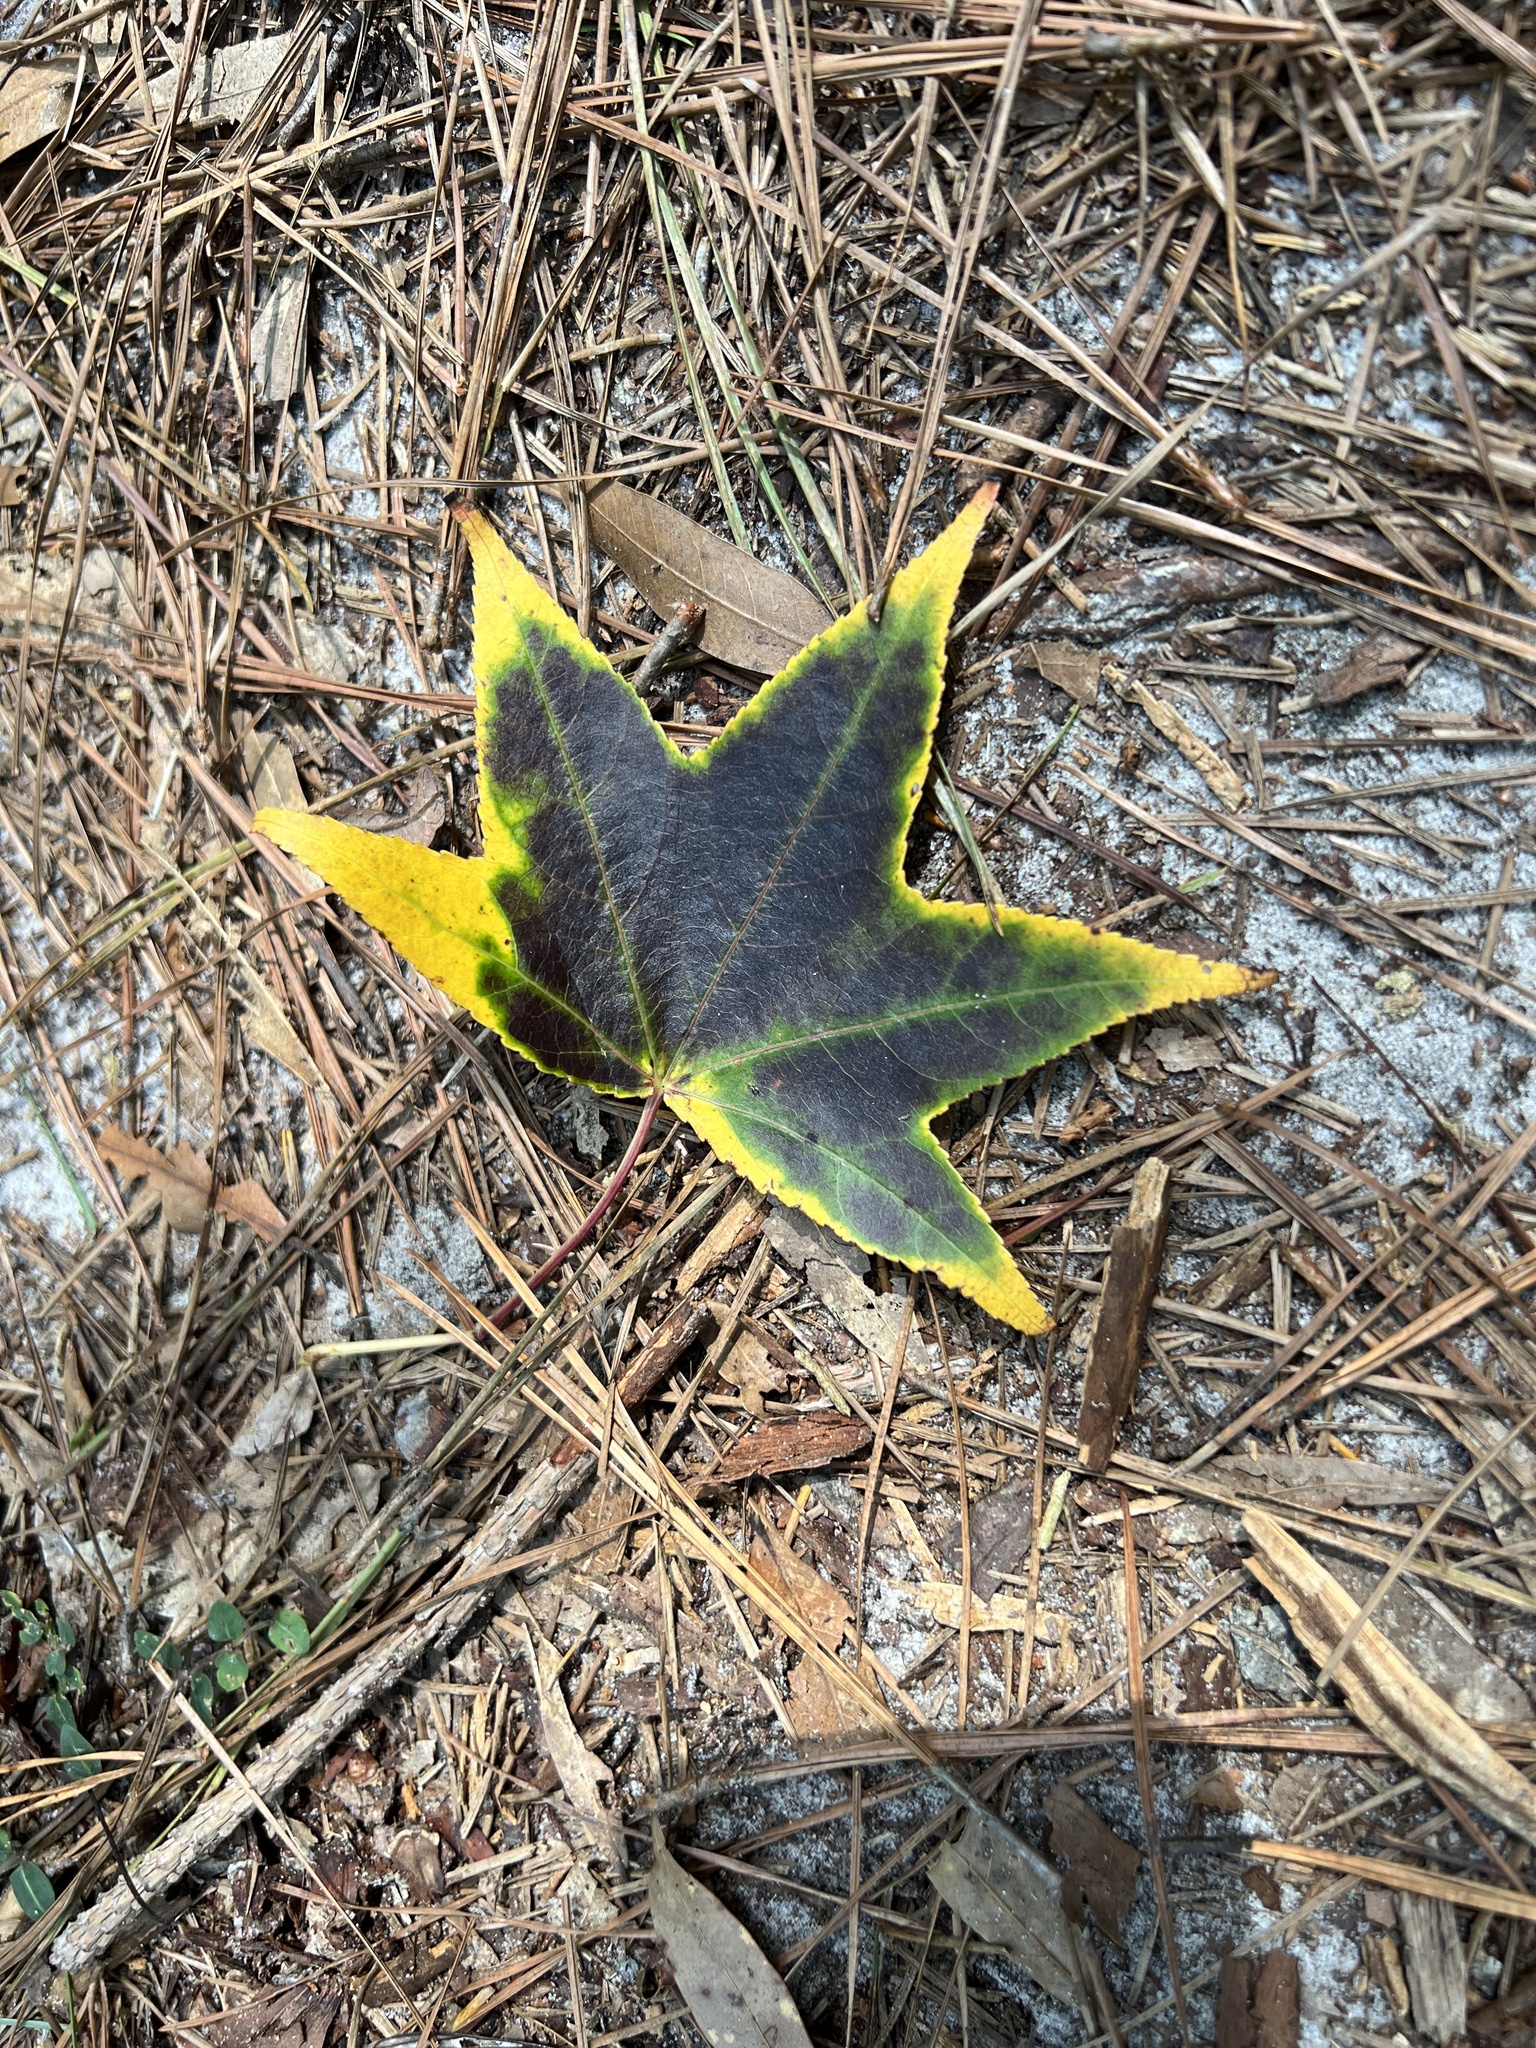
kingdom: Plantae
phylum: Tracheophyta
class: Magnoliopsida
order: Saxifragales
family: Altingiaceae
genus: Liquidambar
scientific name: Liquidambar styraciflua
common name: Sweet gum
